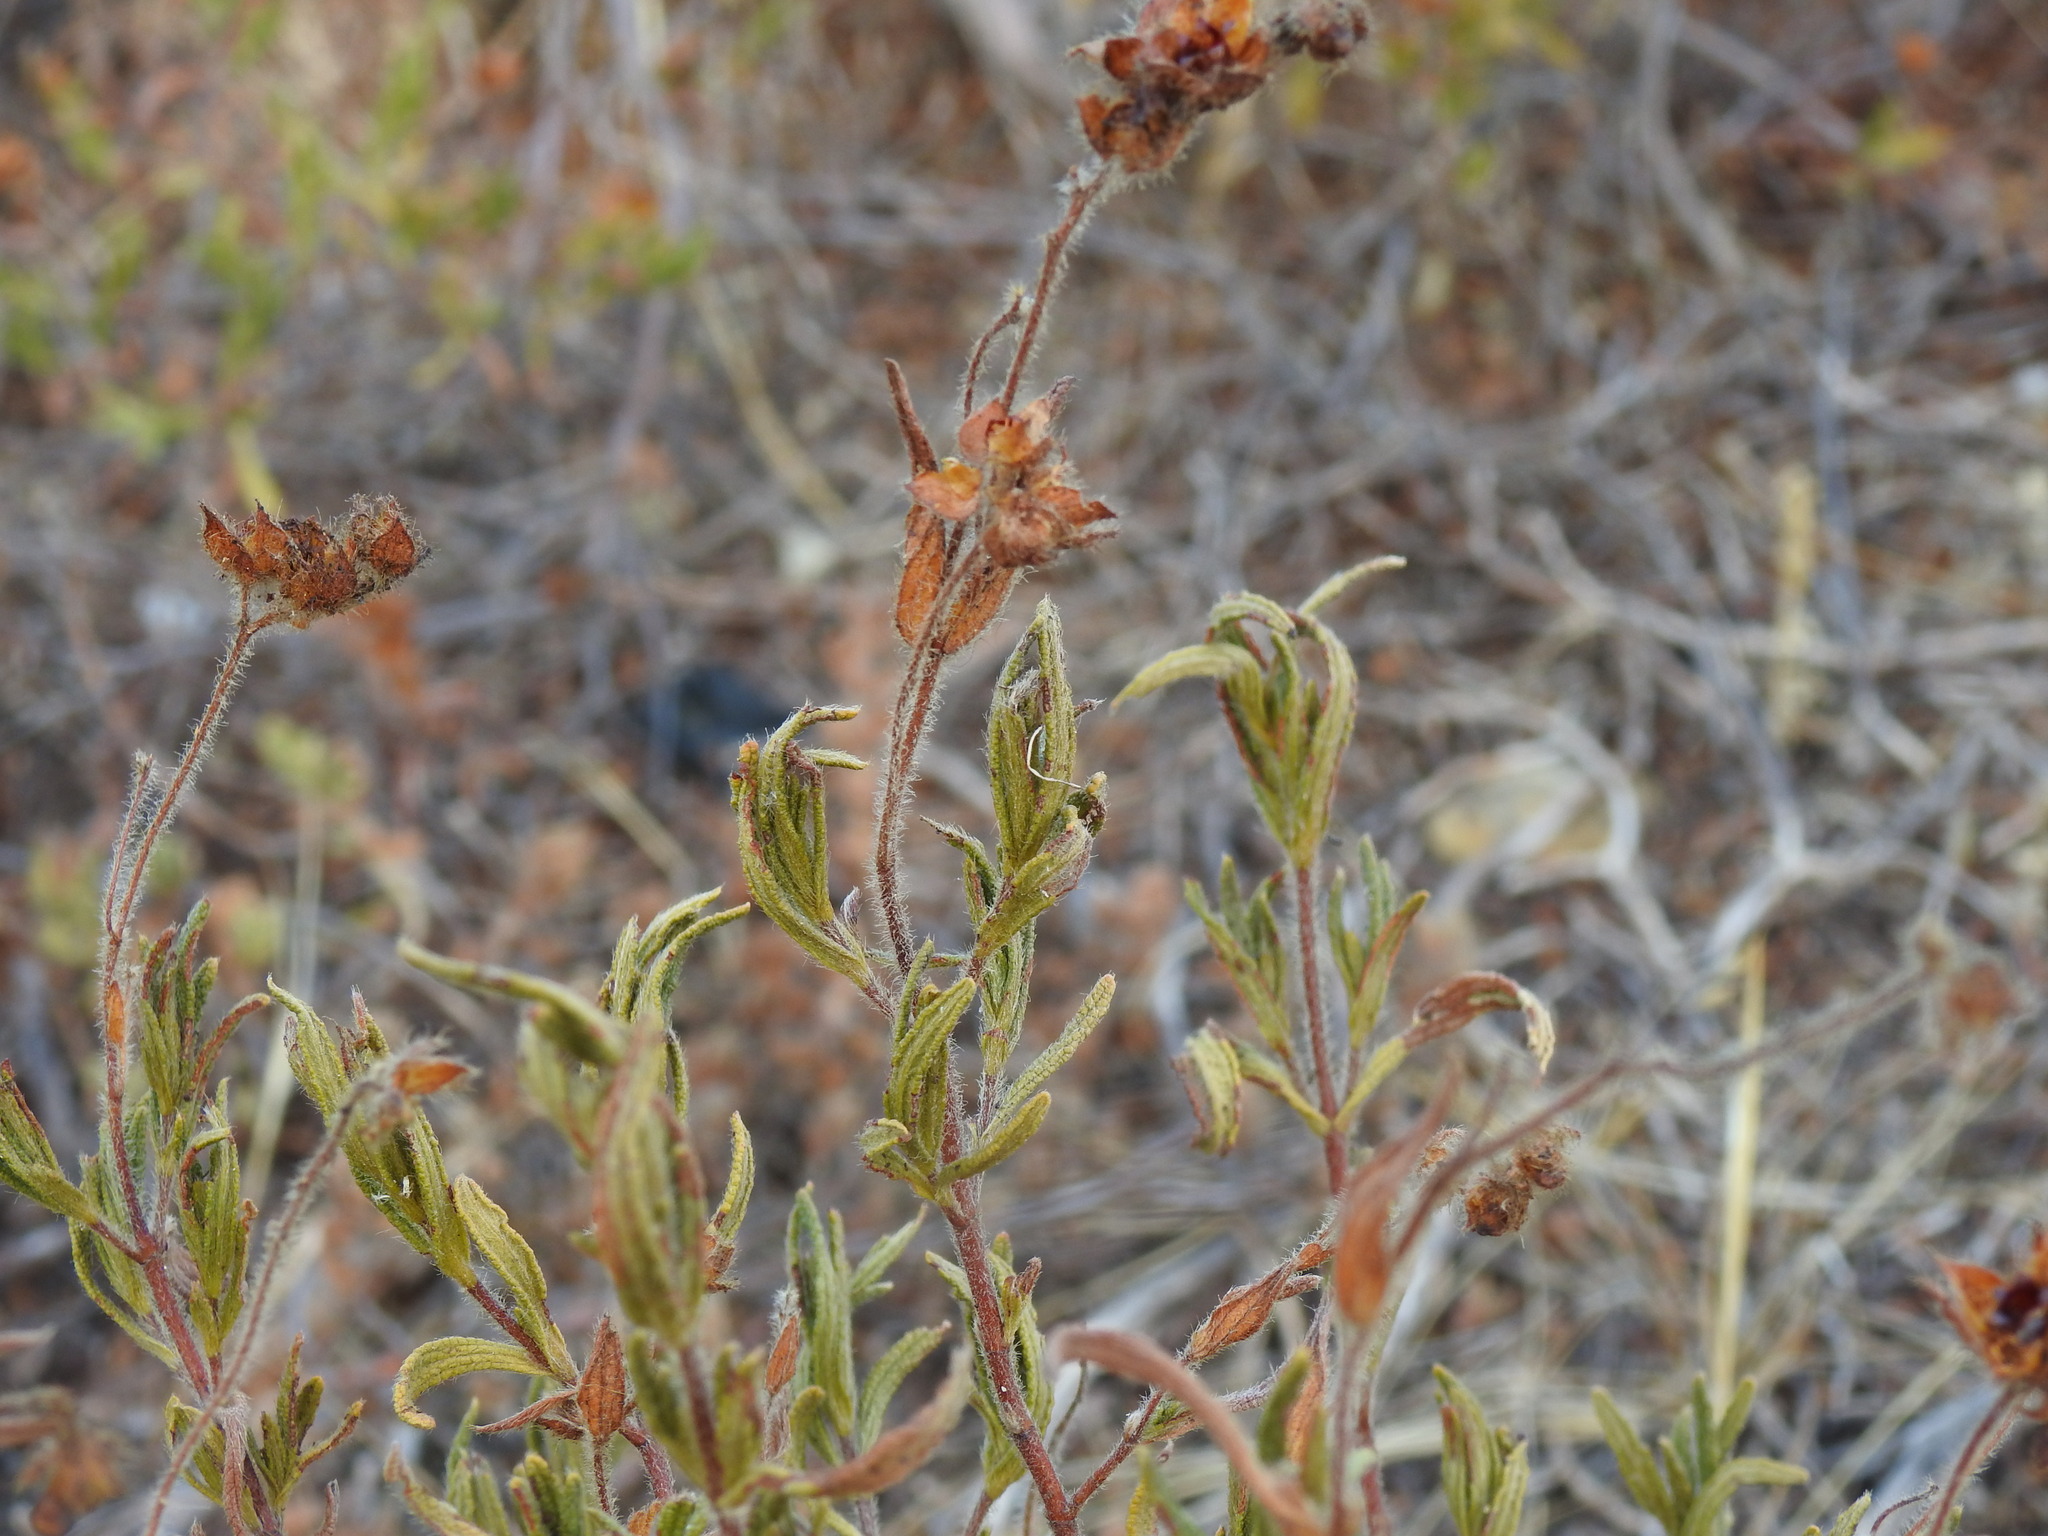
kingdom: Plantae
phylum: Tracheophyta
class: Magnoliopsida
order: Malvales
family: Cistaceae
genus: Cistus
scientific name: Cistus monspeliensis
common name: Montpelier cistus
